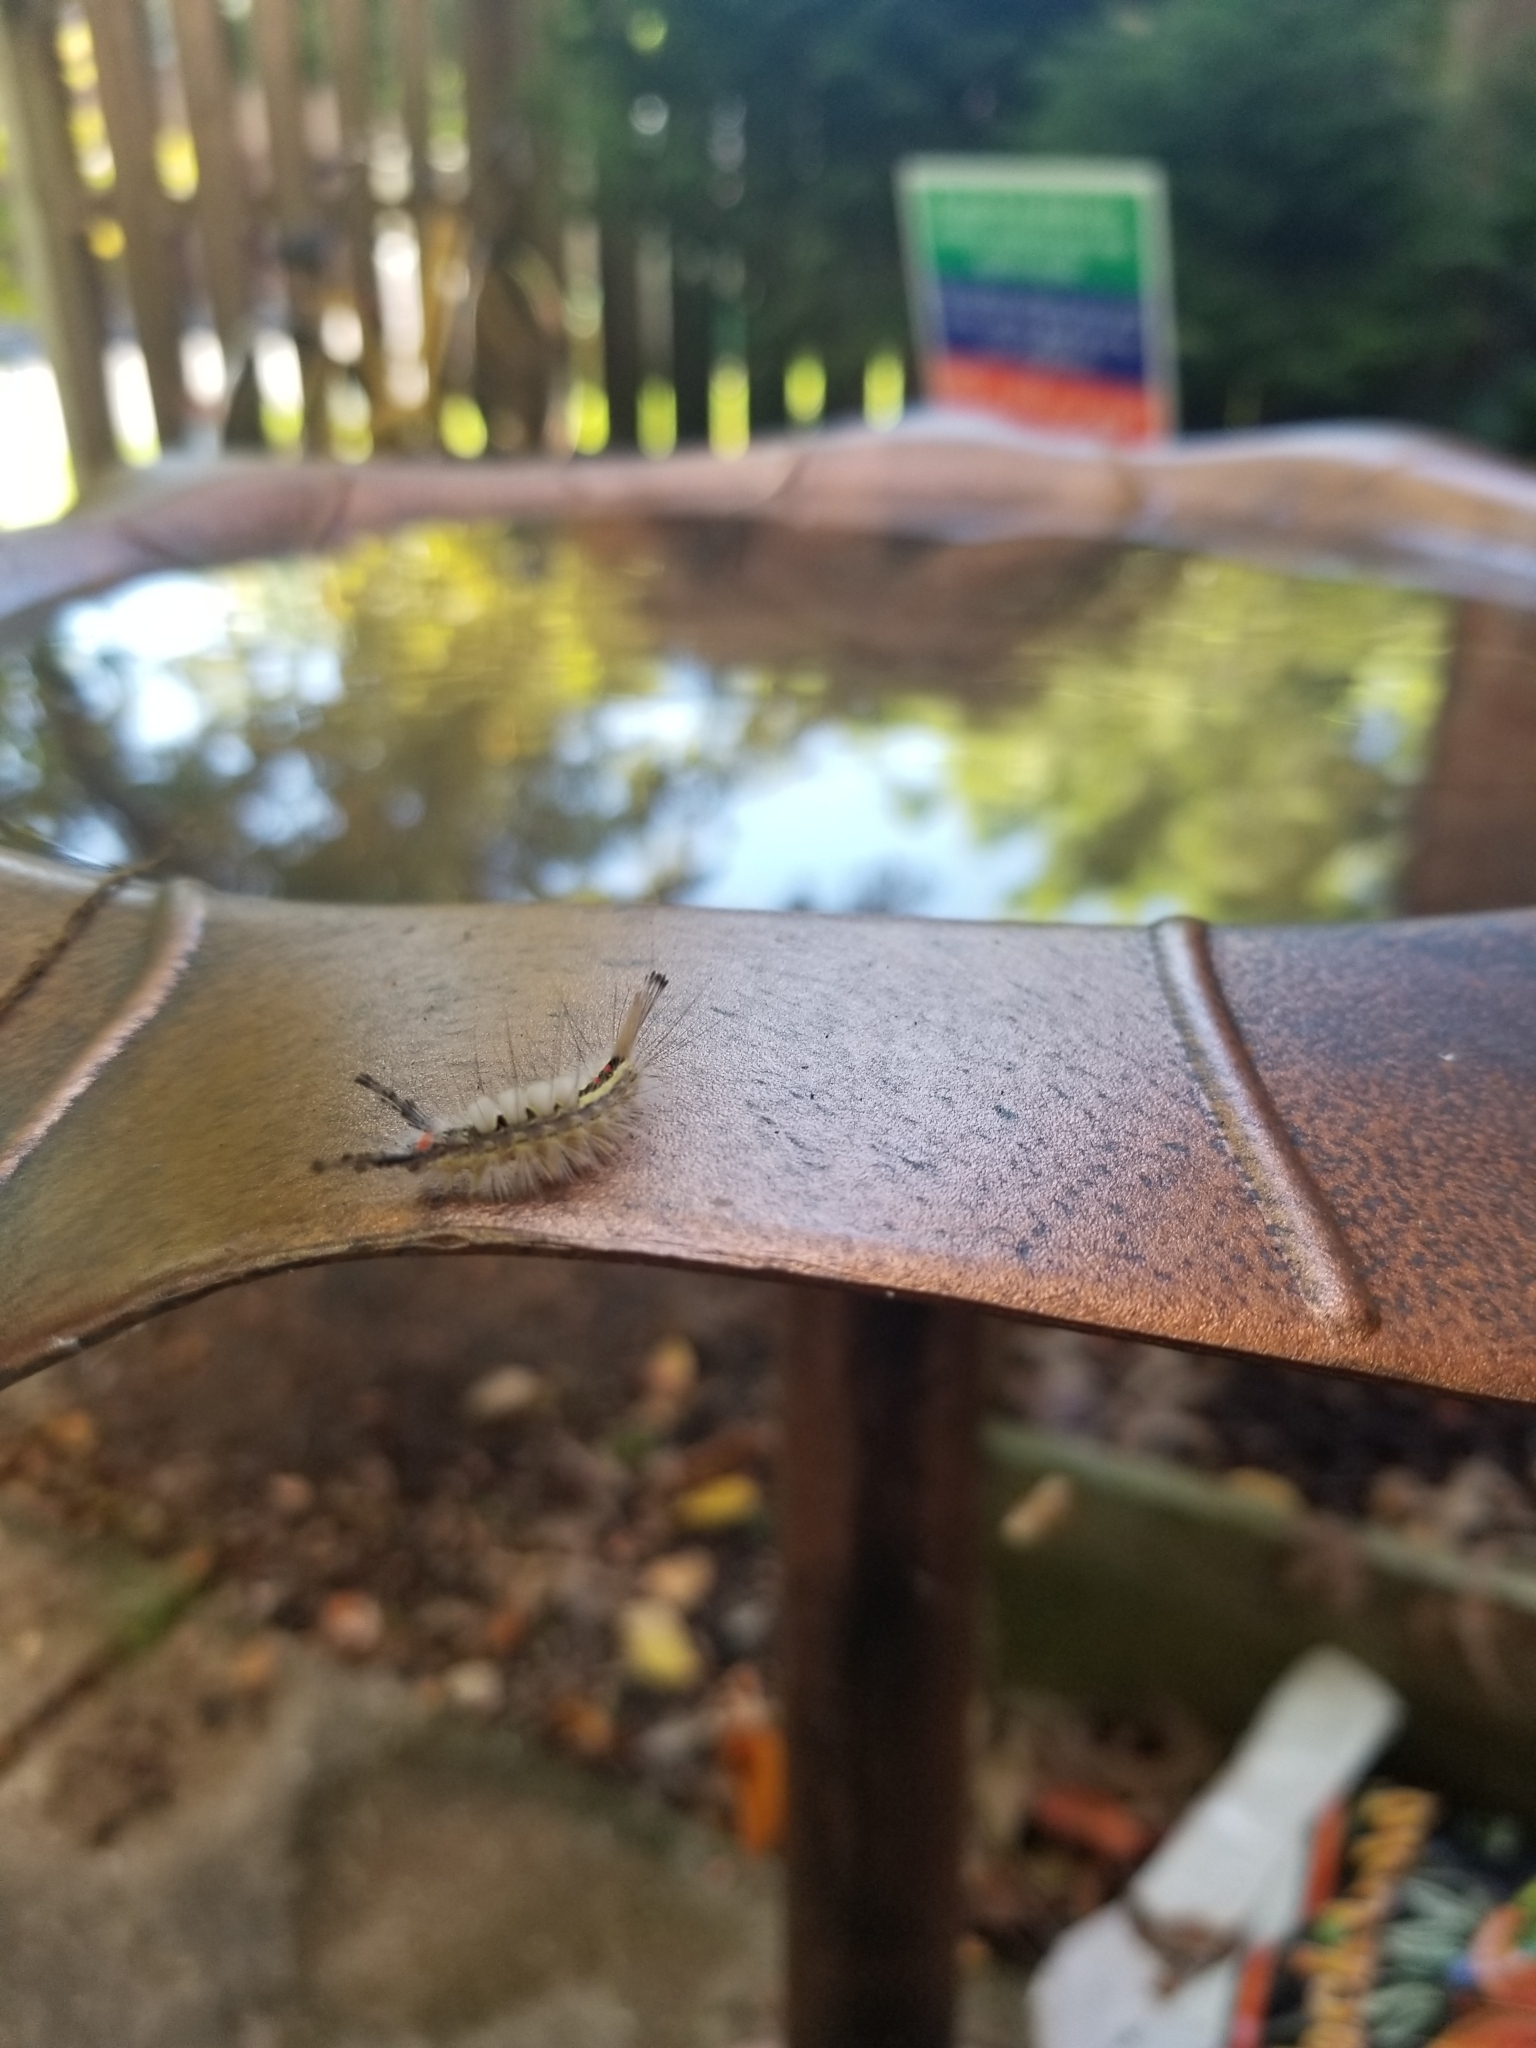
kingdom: Animalia
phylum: Arthropoda
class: Insecta
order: Lepidoptera
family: Erebidae
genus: Orgyia
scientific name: Orgyia leucostigma
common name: White-marked tussock moth
